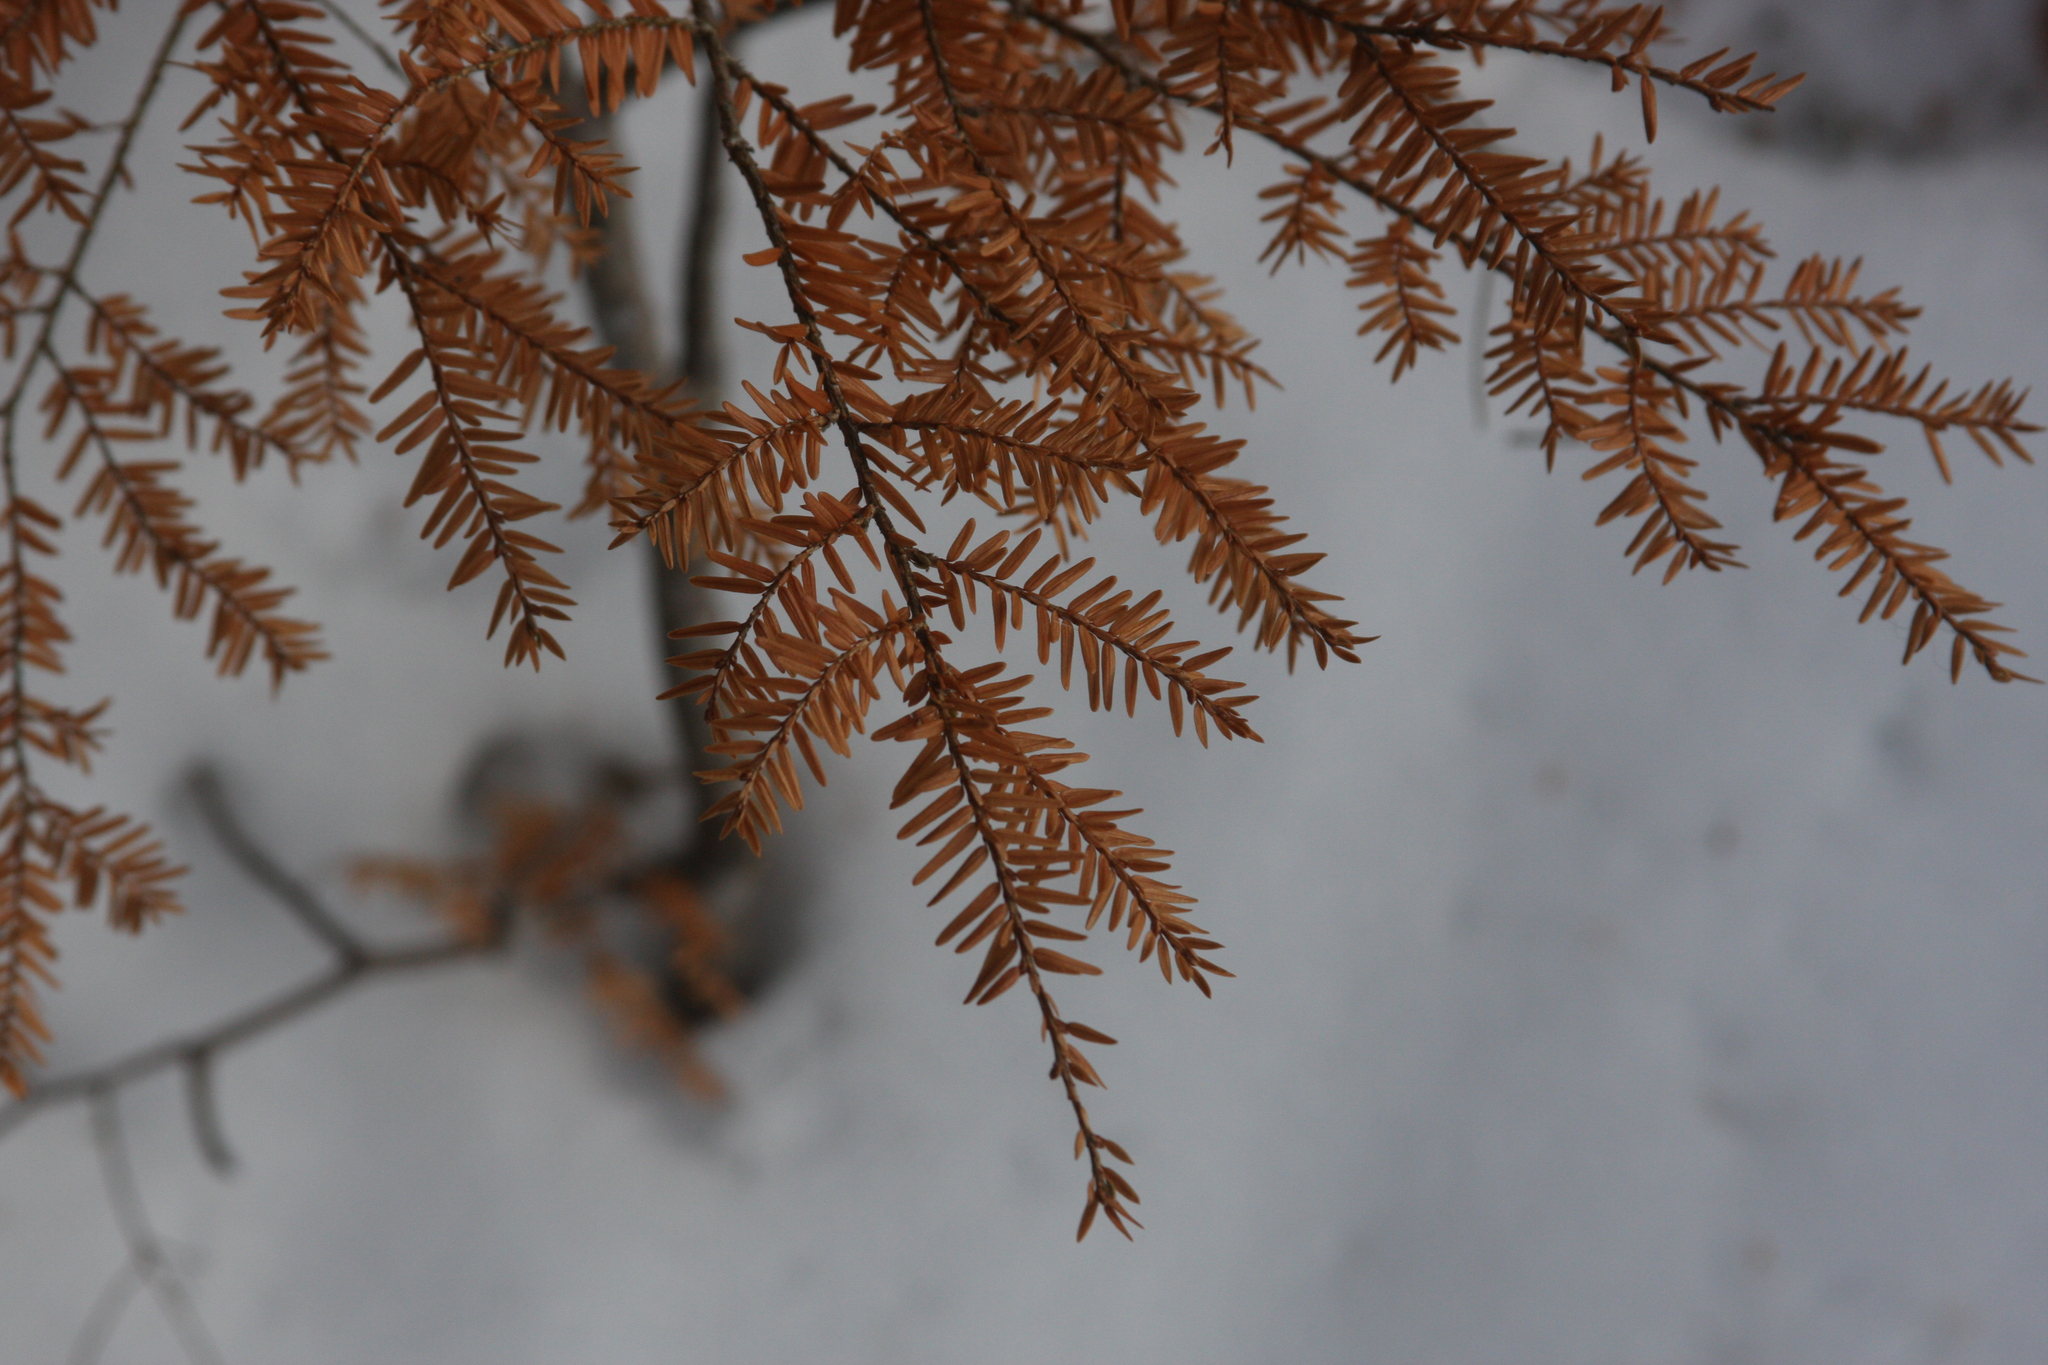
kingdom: Plantae
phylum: Tracheophyta
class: Pinopsida
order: Pinales
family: Pinaceae
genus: Tsuga
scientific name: Tsuga canadensis
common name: Eastern hemlock
